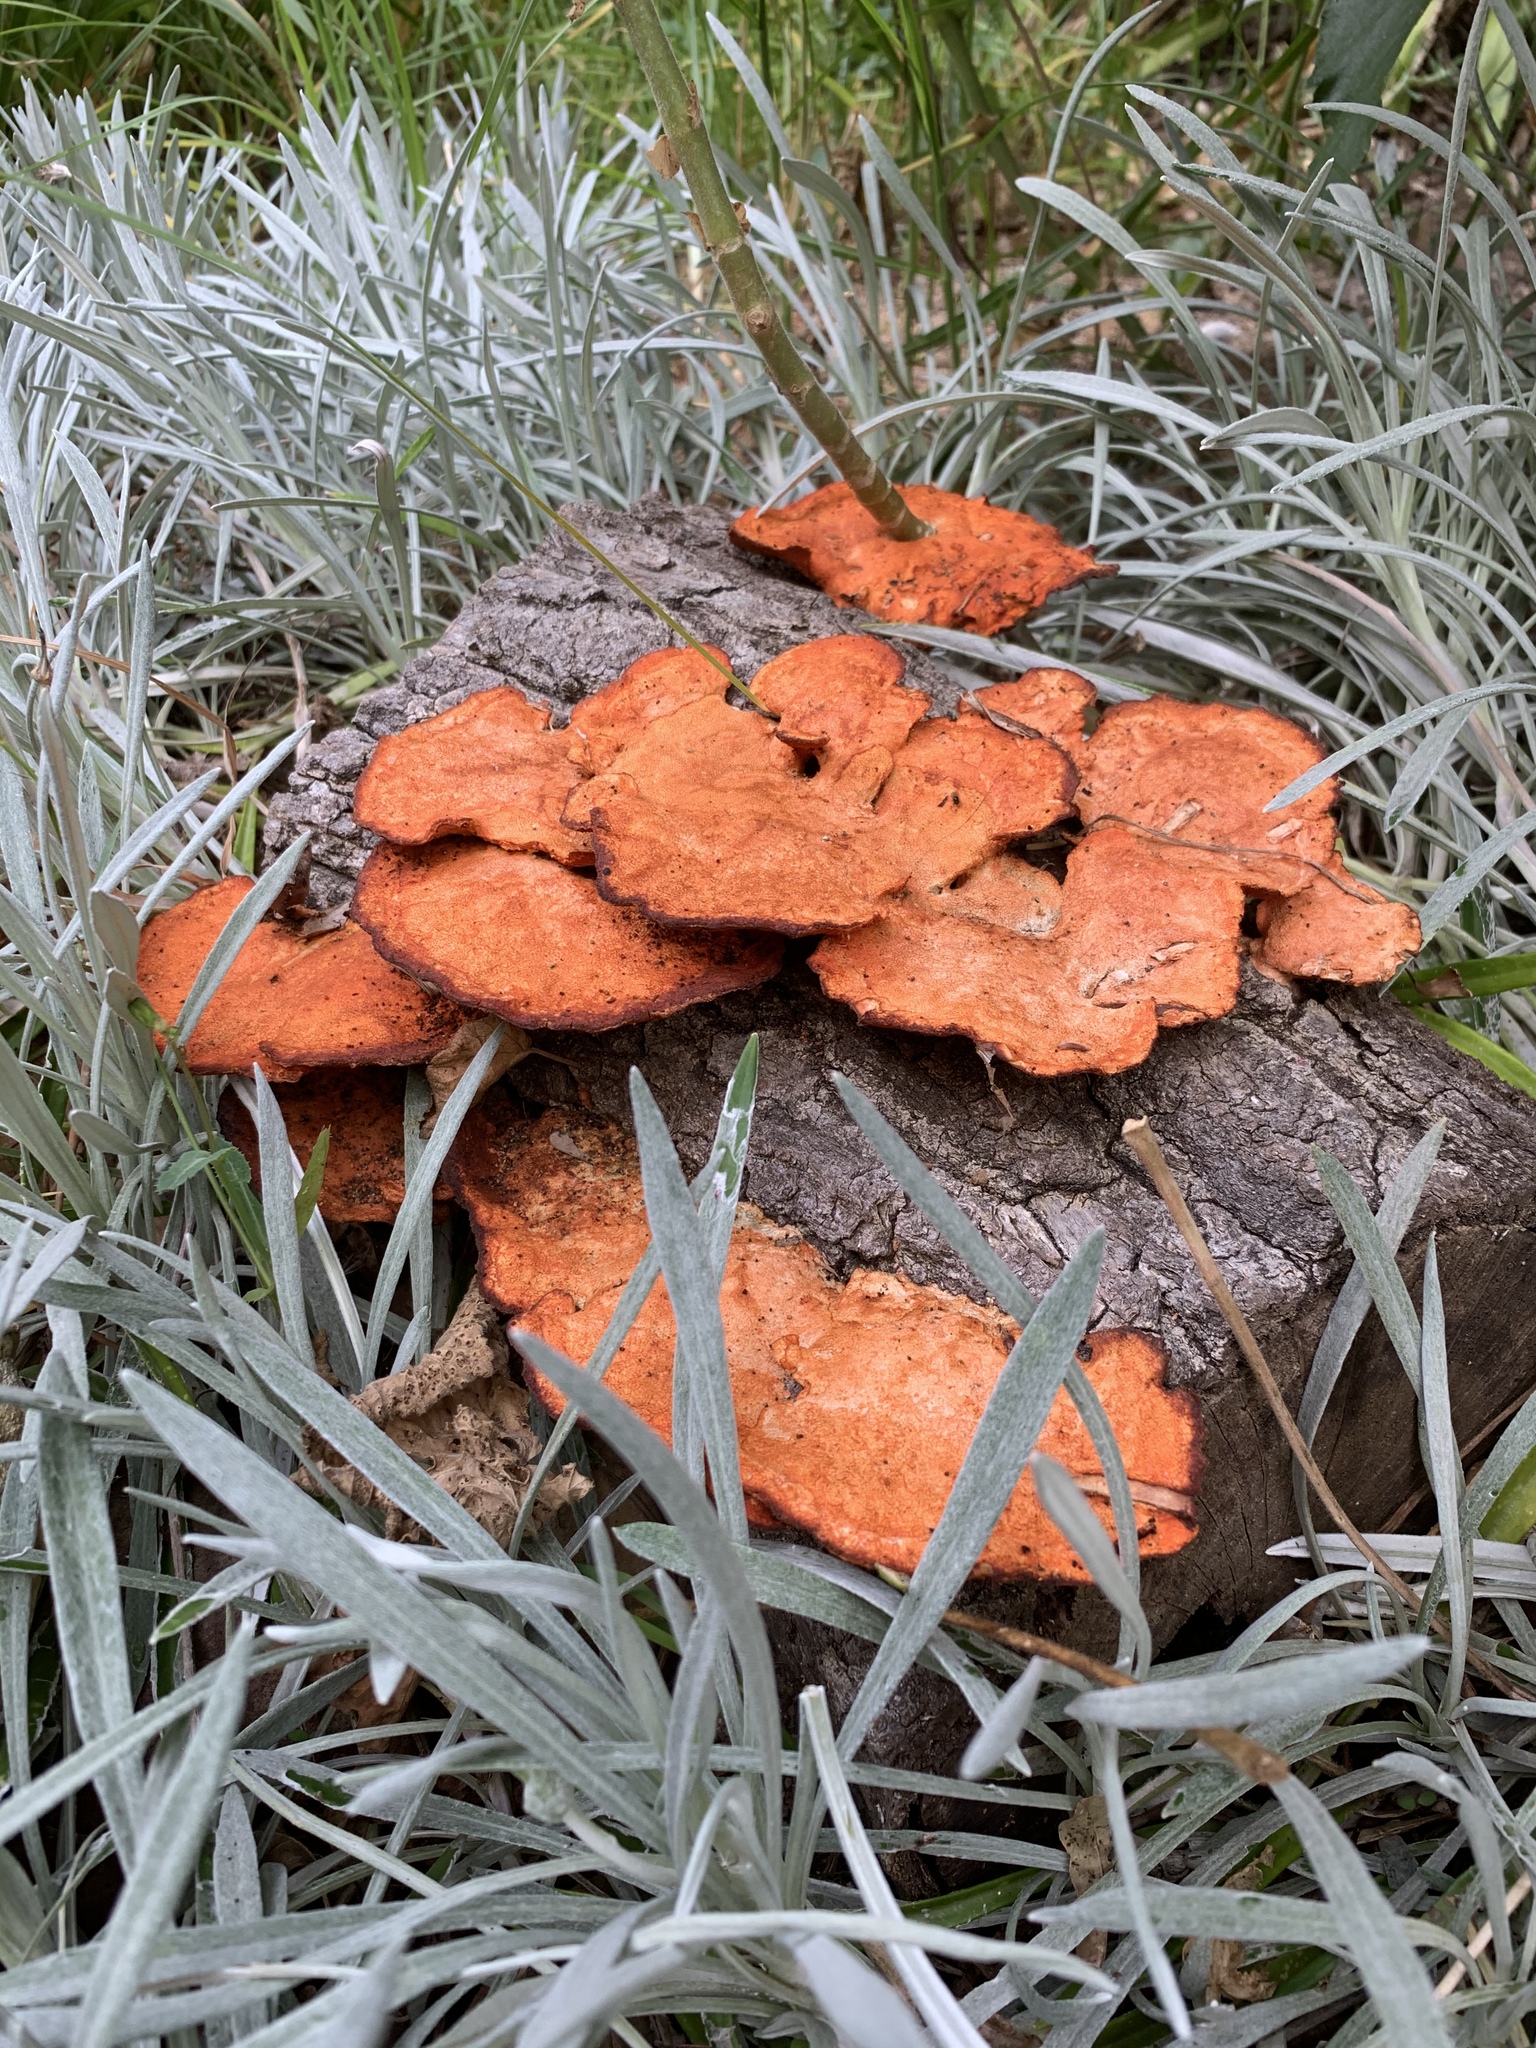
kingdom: Fungi
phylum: Basidiomycota
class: Agaricomycetes
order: Polyporales
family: Polyporaceae
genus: Trametes
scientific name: Trametes coccinea
